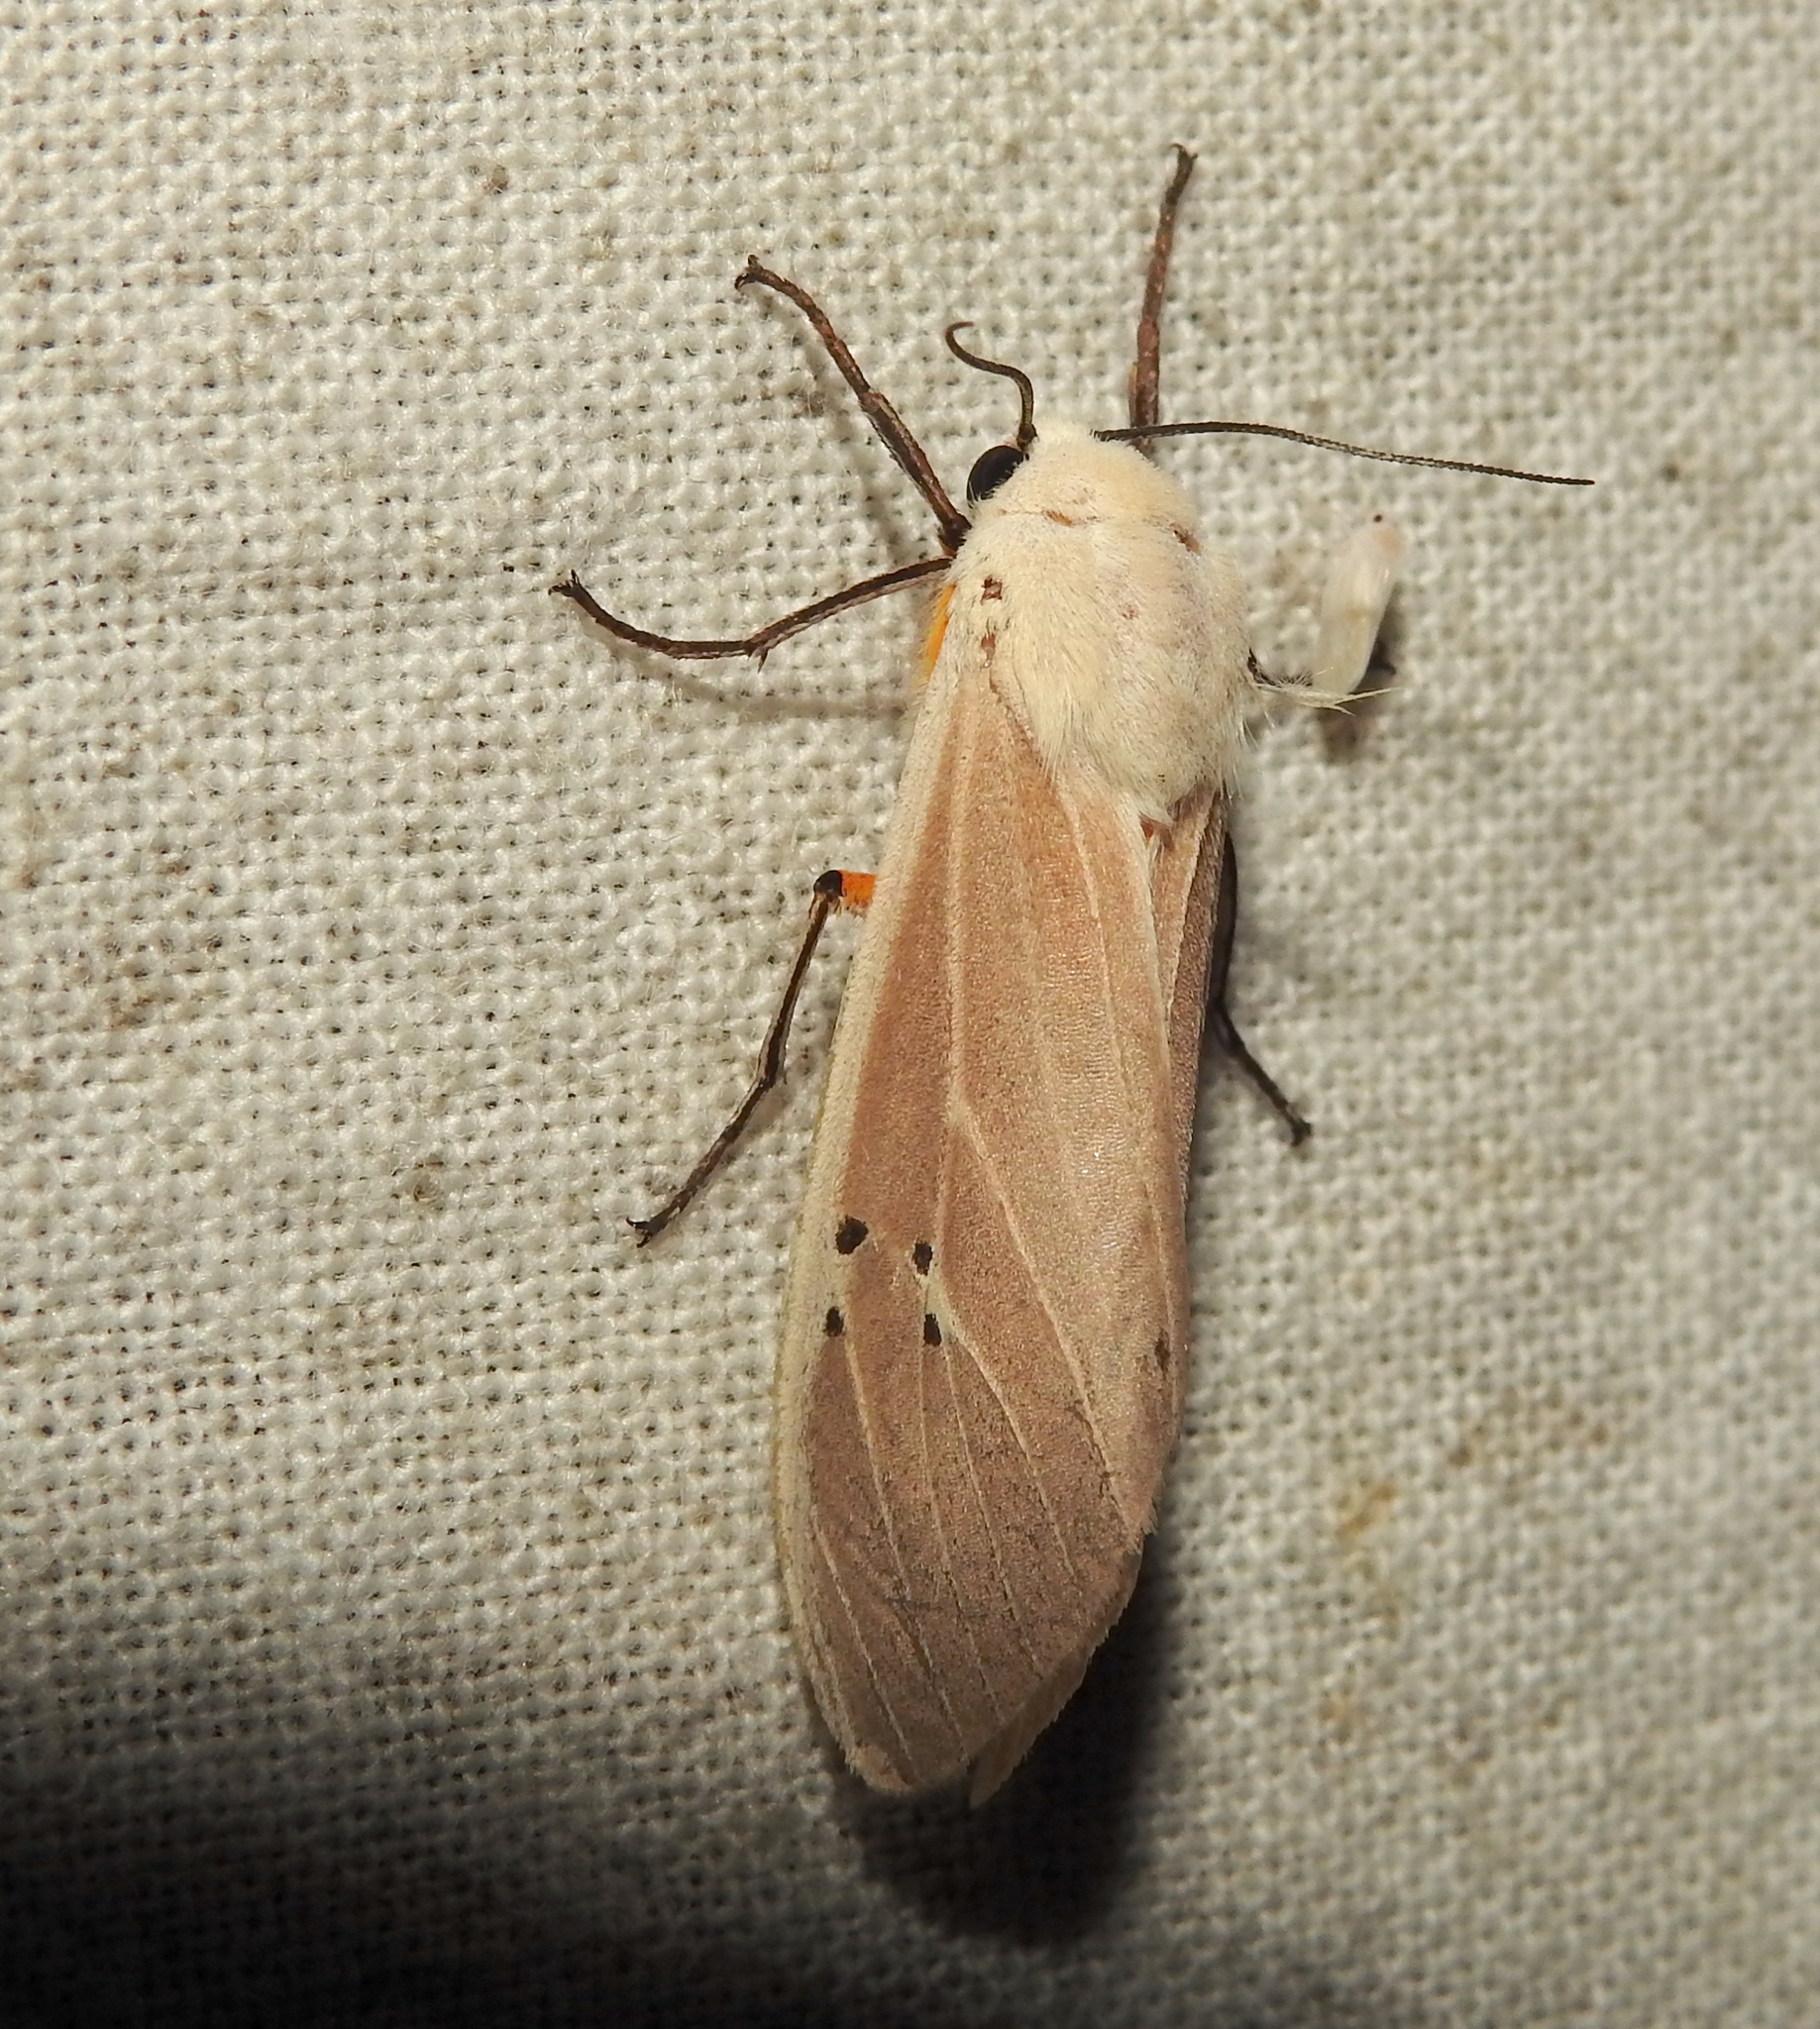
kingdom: Animalia
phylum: Arthropoda
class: Insecta
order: Lepidoptera
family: Erebidae
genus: Creatonotos
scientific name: Creatonotos transiens
